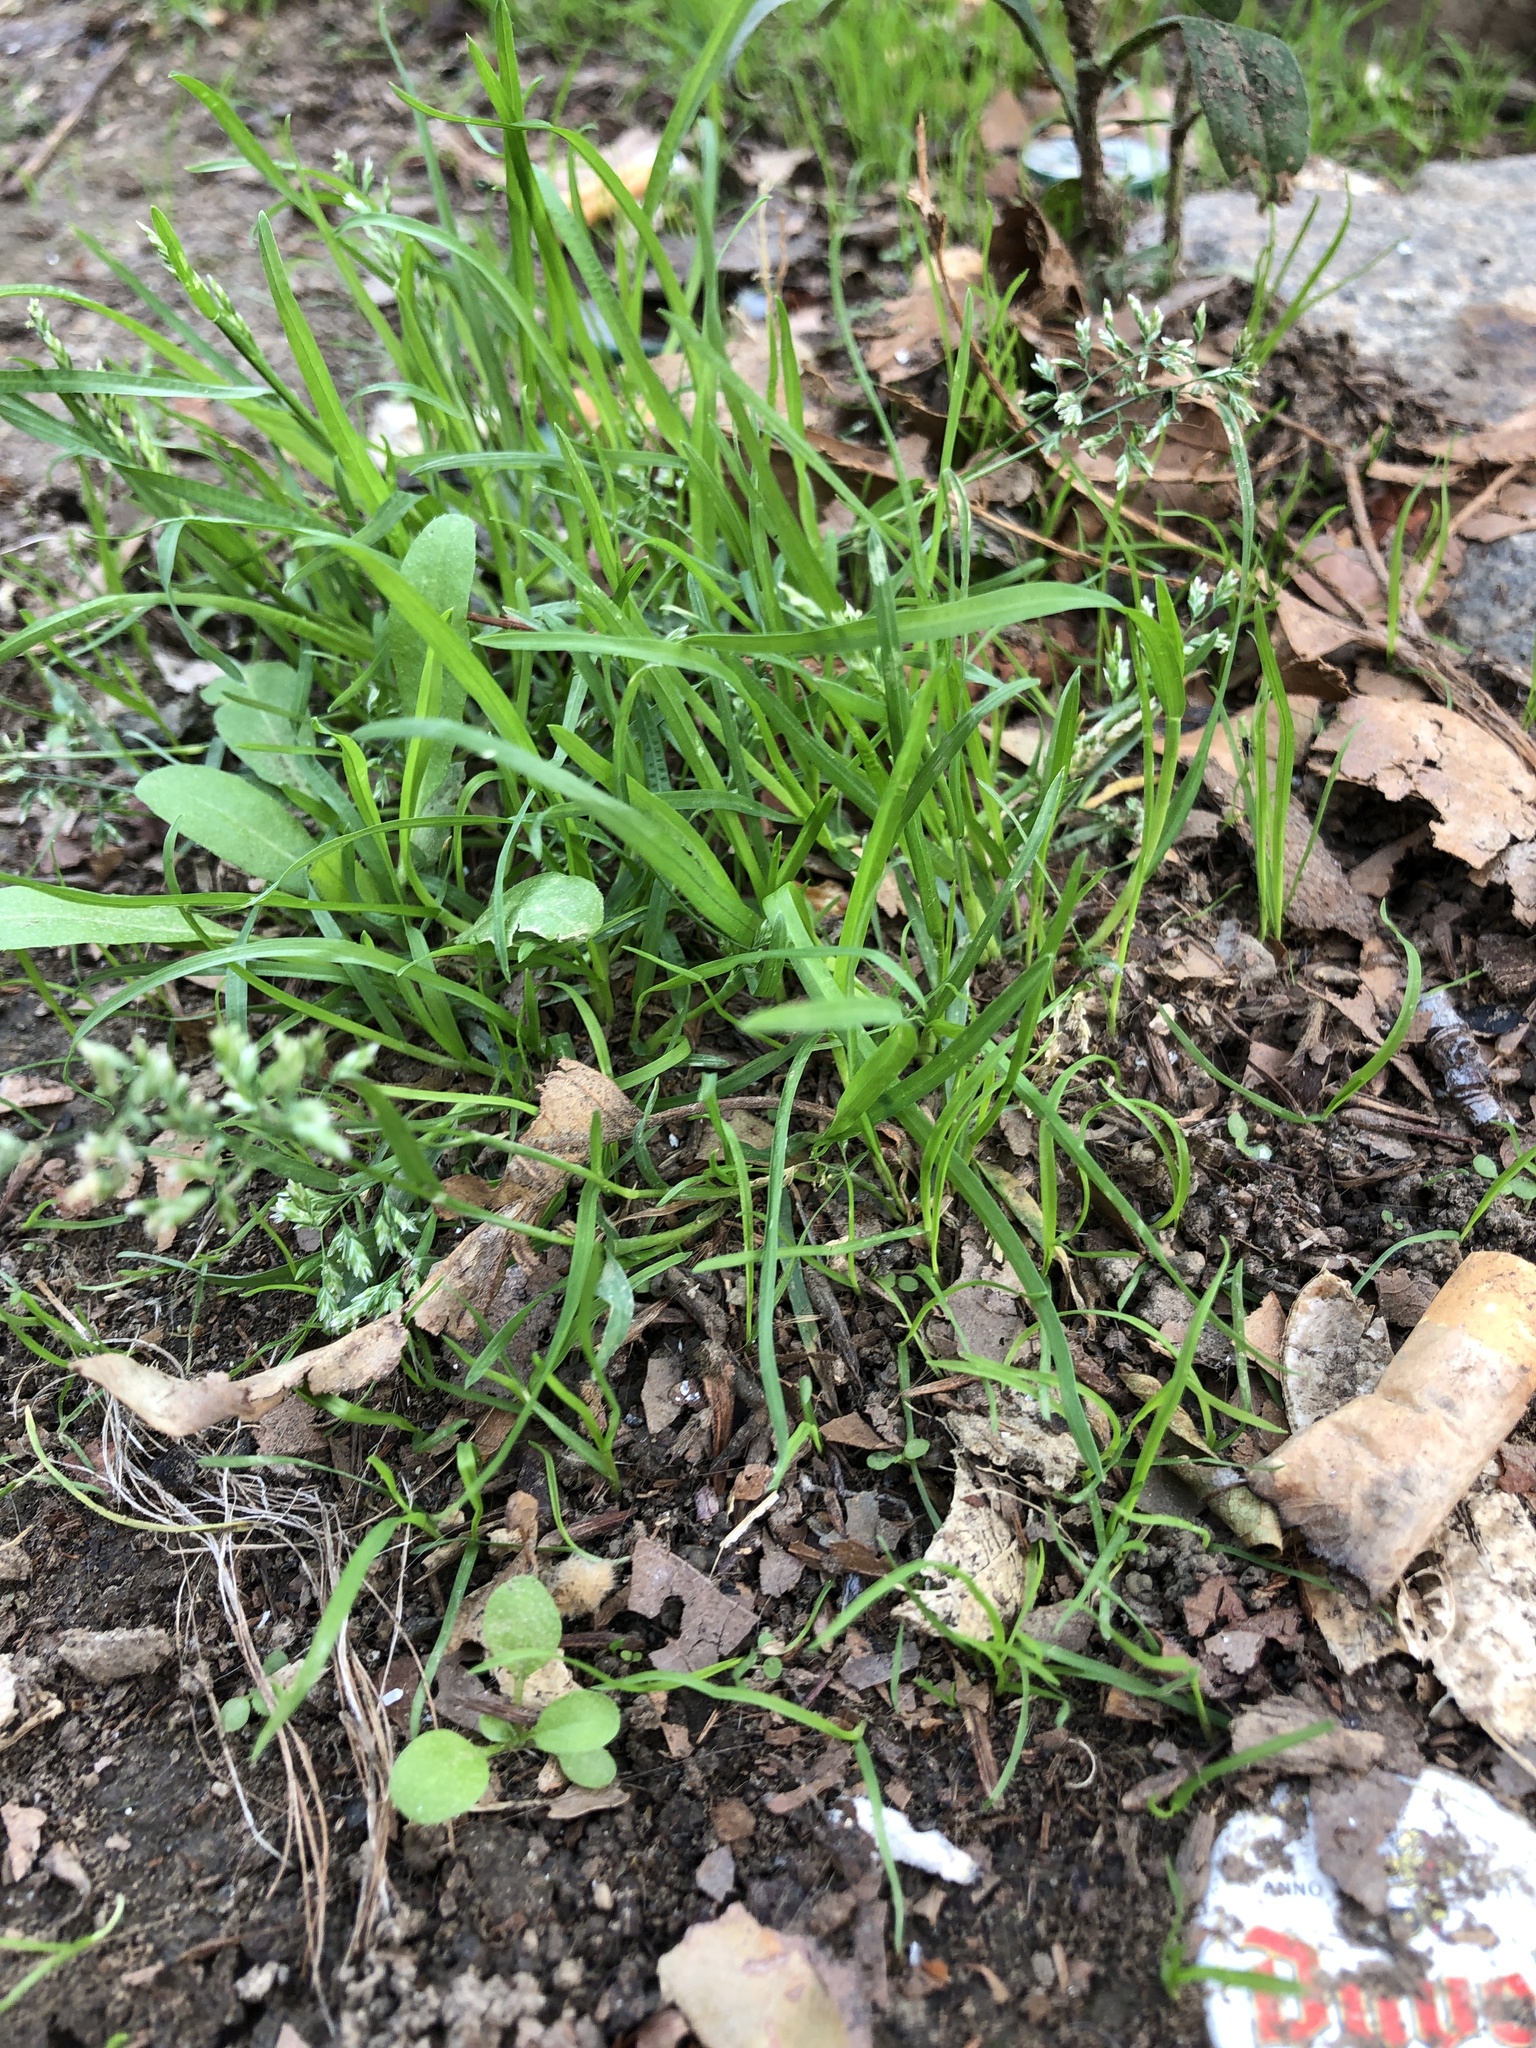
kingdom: Plantae
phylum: Tracheophyta
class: Liliopsida
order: Poales
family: Poaceae
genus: Poa
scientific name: Poa annua
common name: Annual bluegrass
